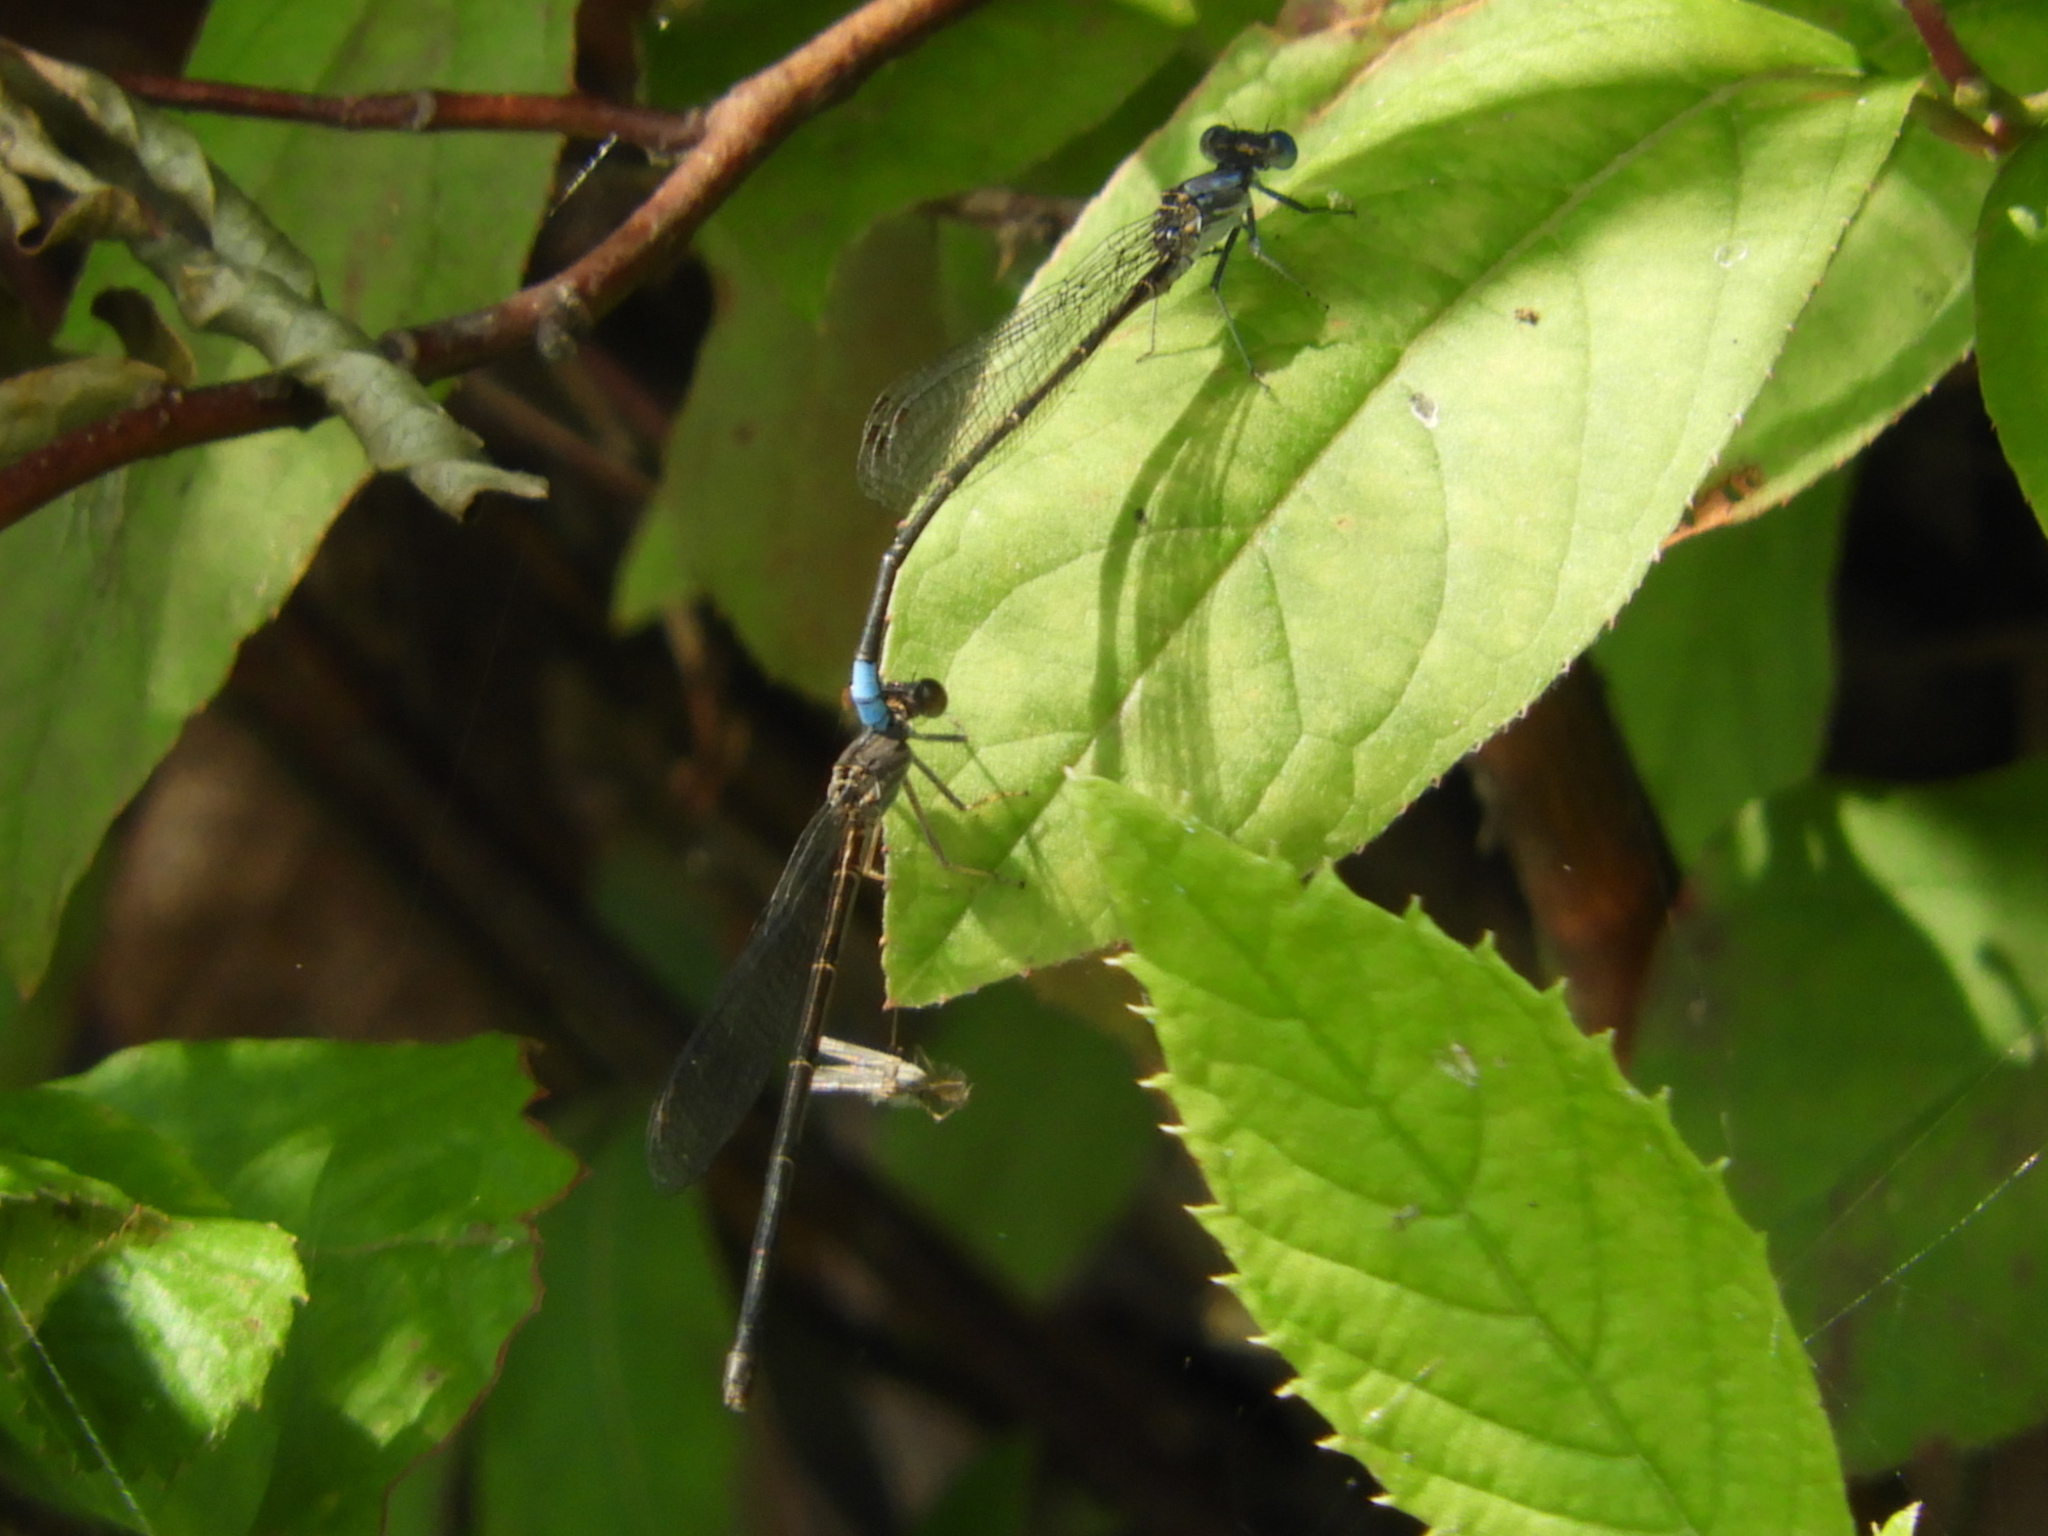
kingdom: Animalia
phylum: Arthropoda
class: Insecta
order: Odonata
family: Coenagrionidae
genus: Argia
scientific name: Argia apicalis
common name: Blue-fronted dancer
